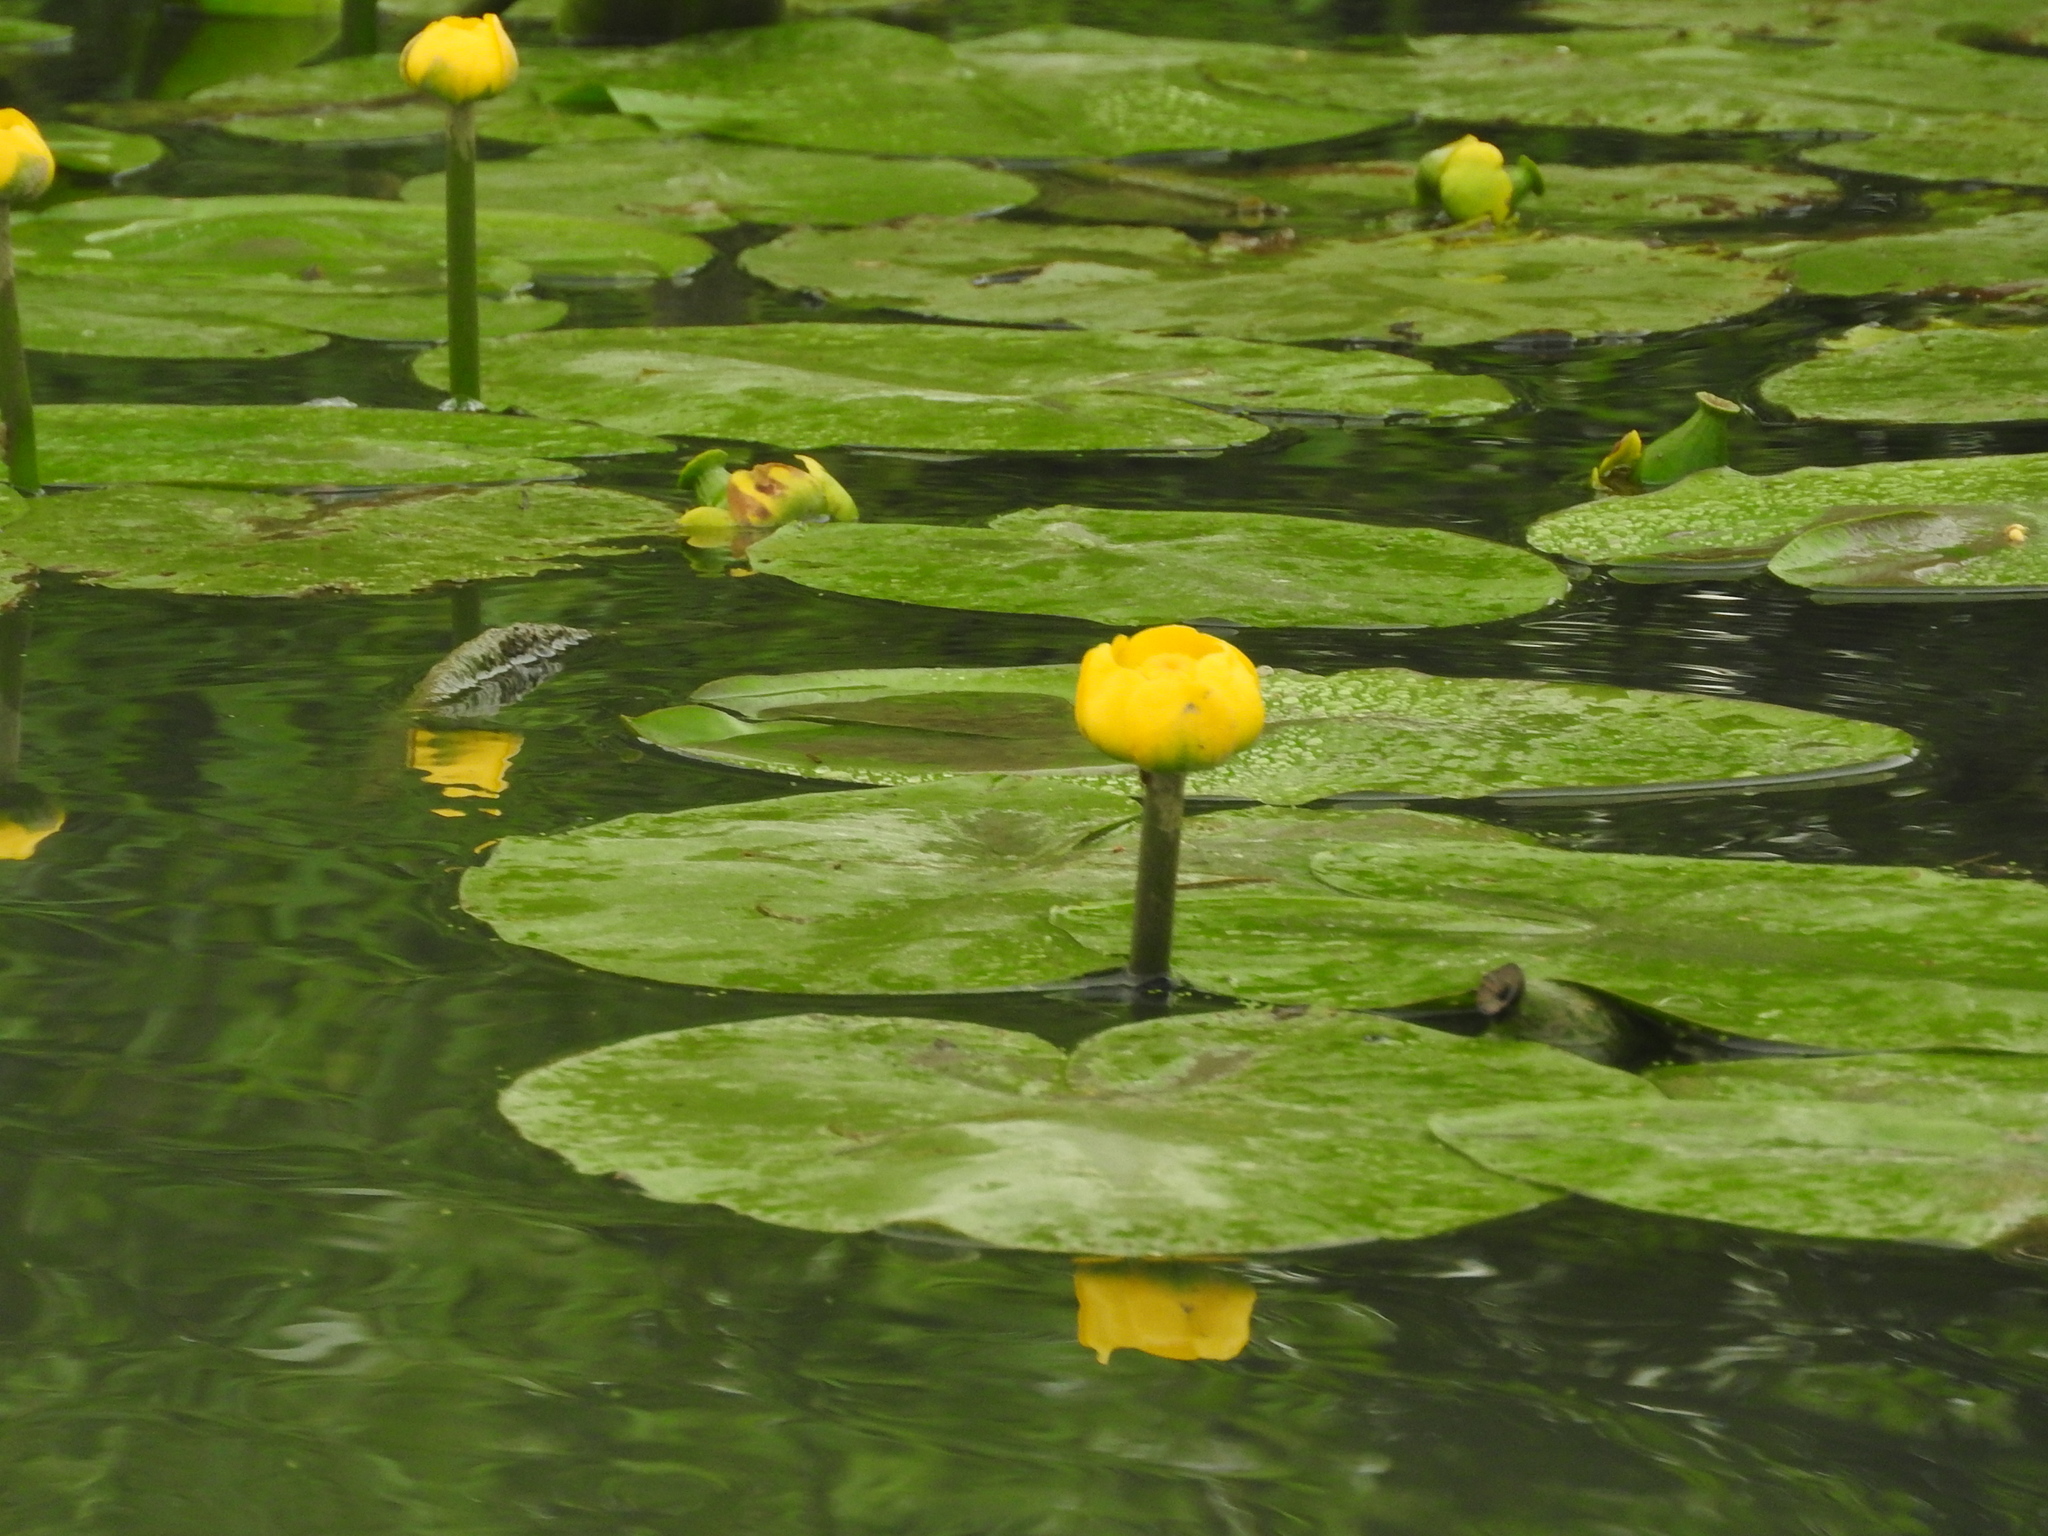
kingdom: Plantae
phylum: Tracheophyta
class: Magnoliopsida
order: Nymphaeales
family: Nymphaeaceae
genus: Nuphar
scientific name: Nuphar lutea
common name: Yellow water-lily
